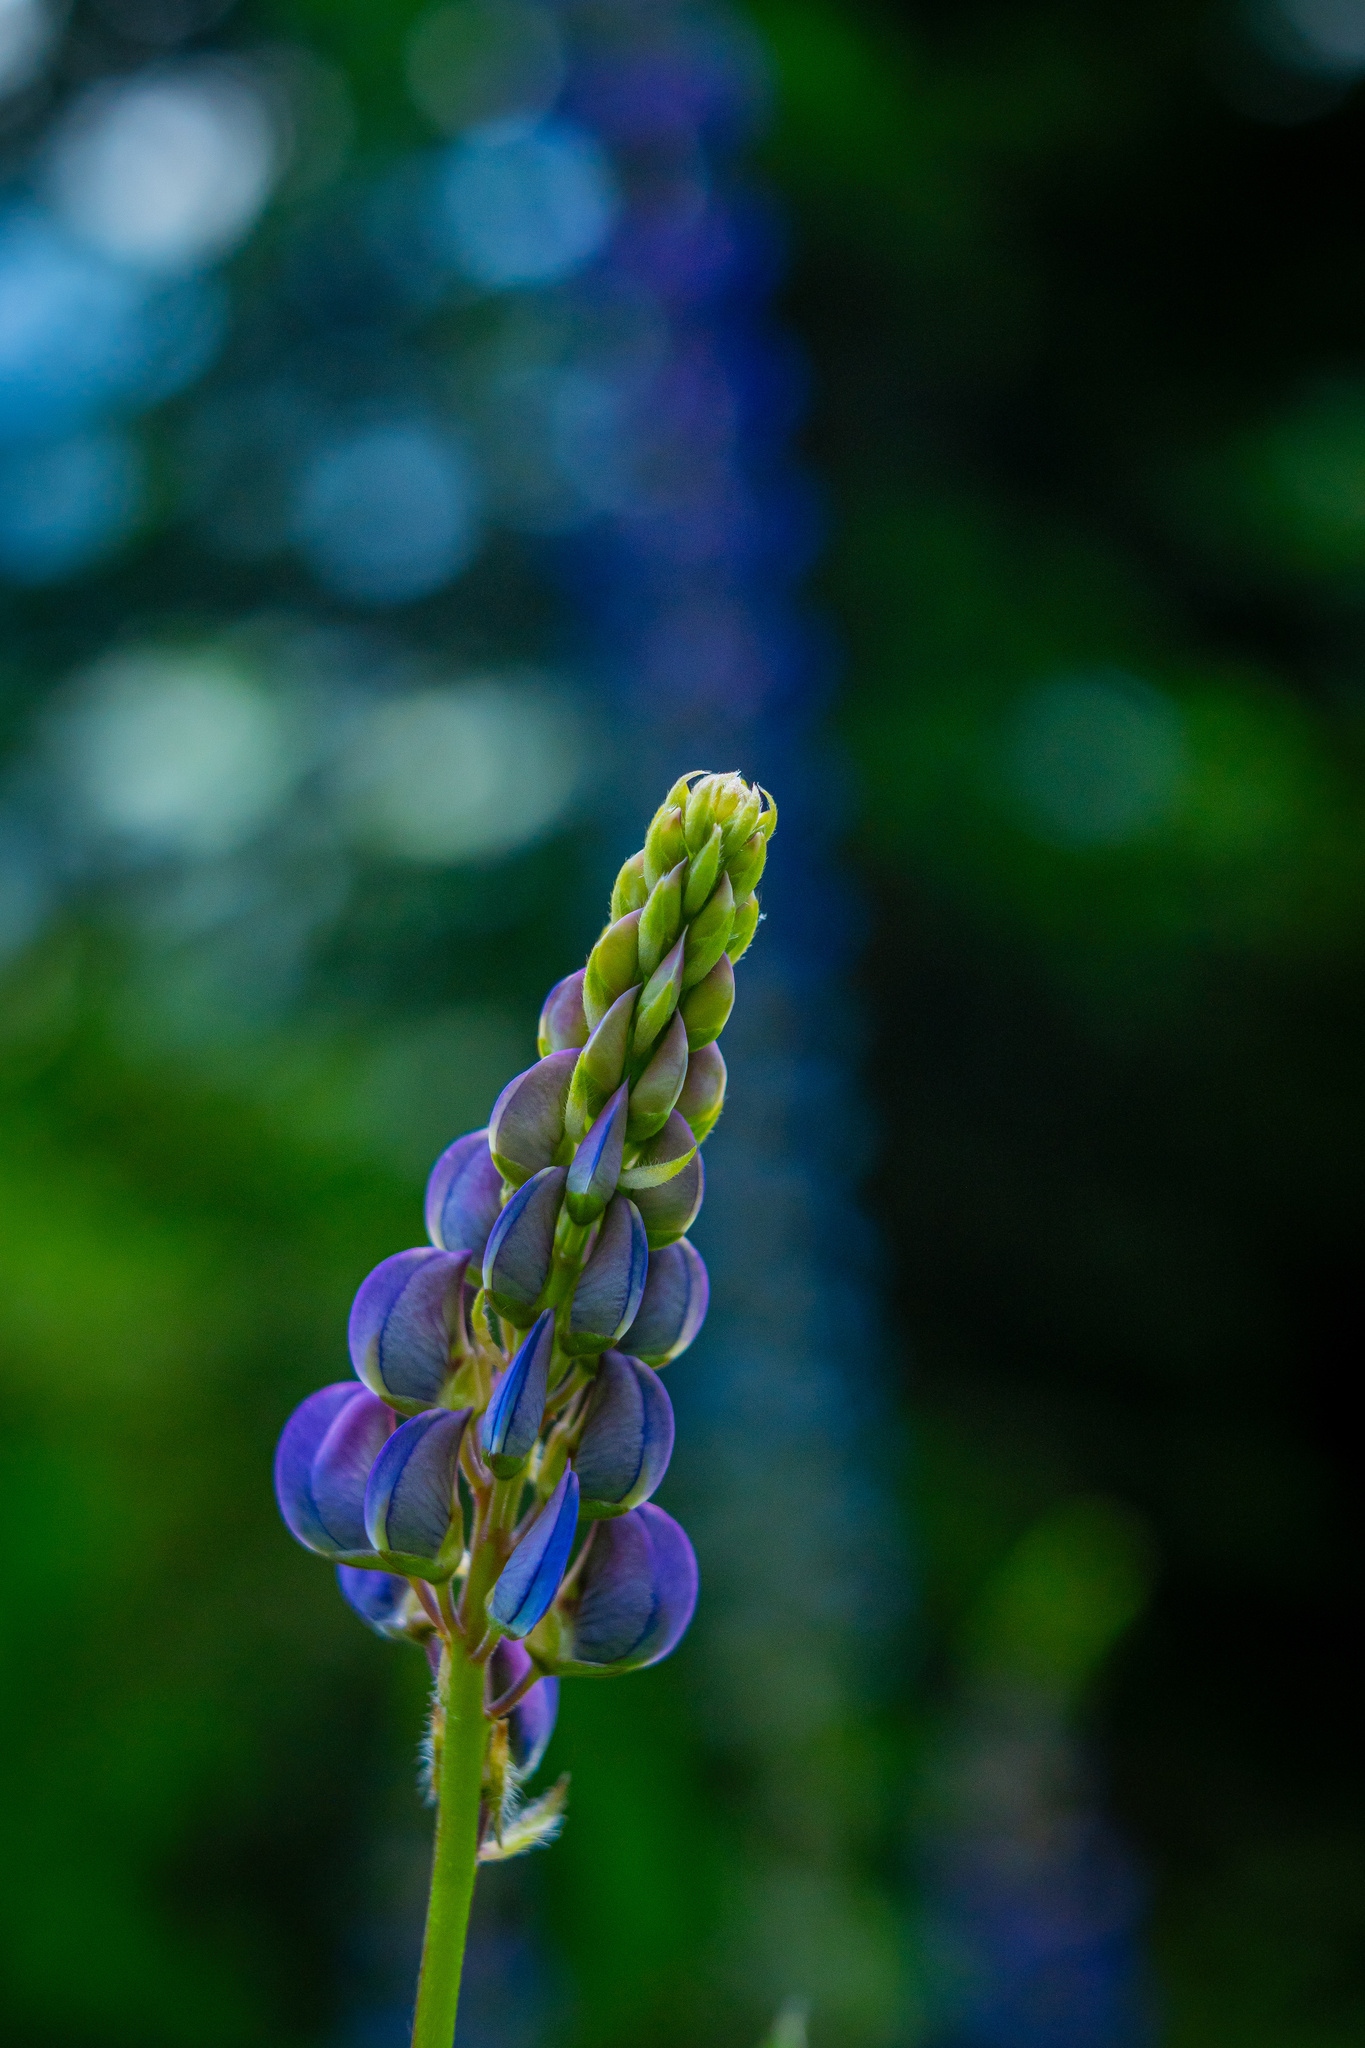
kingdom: Plantae
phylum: Tracheophyta
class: Magnoliopsida
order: Fabales
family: Fabaceae
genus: Lupinus
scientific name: Lupinus polyphyllus
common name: Garden lupin
